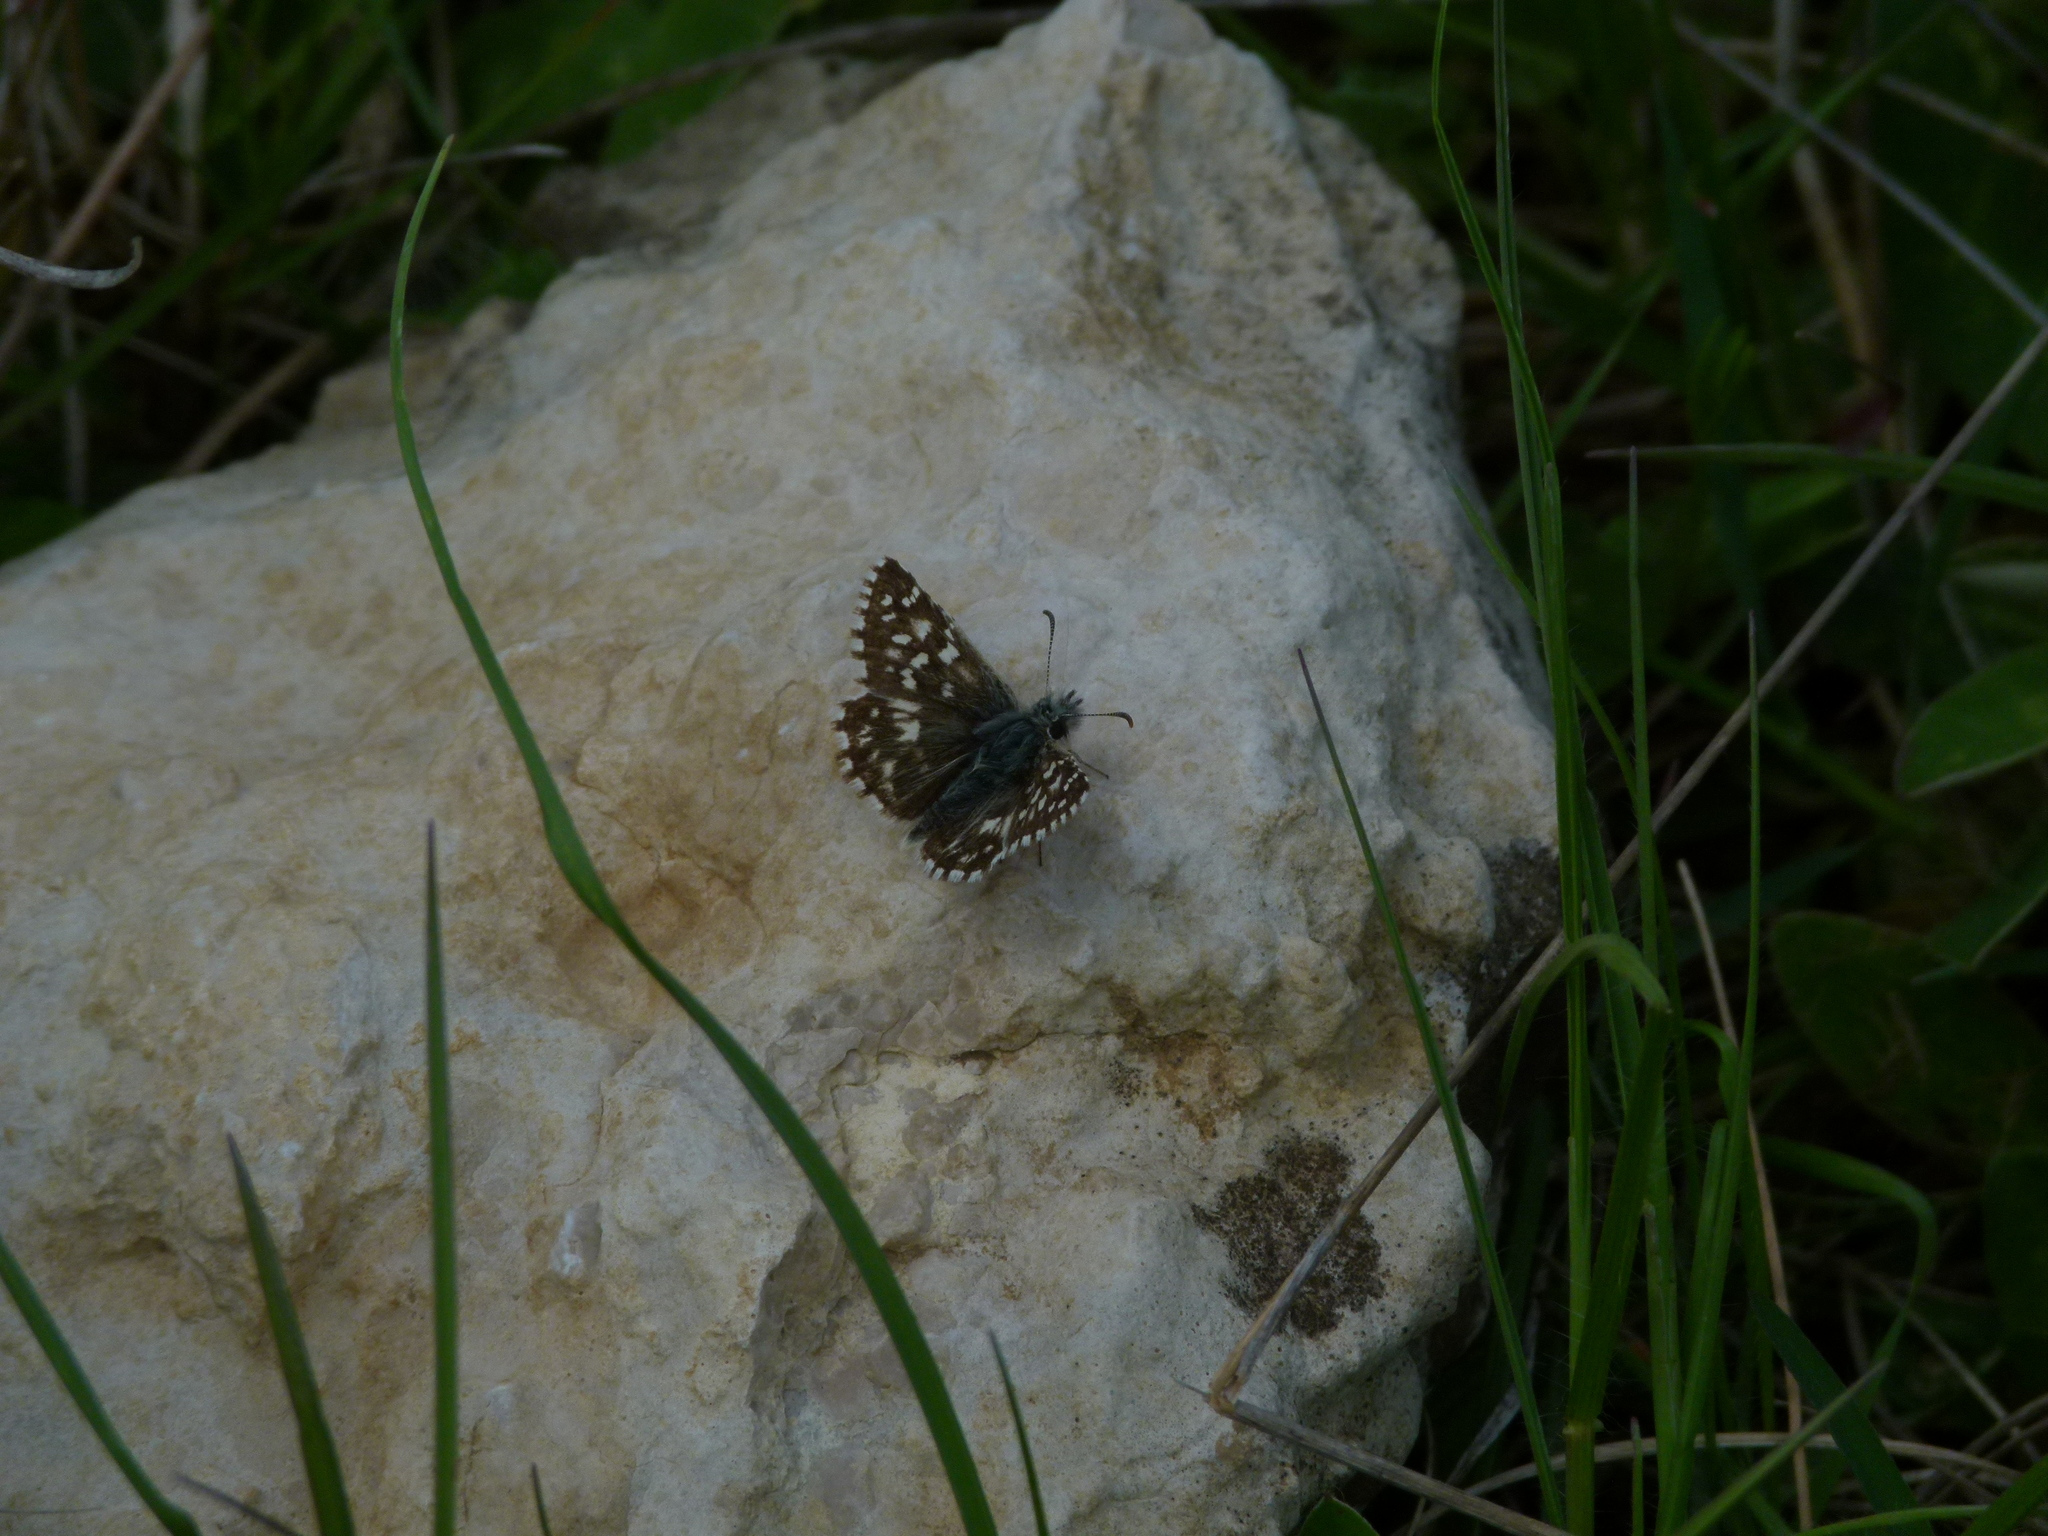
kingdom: Animalia
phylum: Arthropoda
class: Insecta
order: Lepidoptera
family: Hesperiidae
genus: Pyrgus
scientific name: Pyrgus malvoides
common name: Southern grizzled skipper
